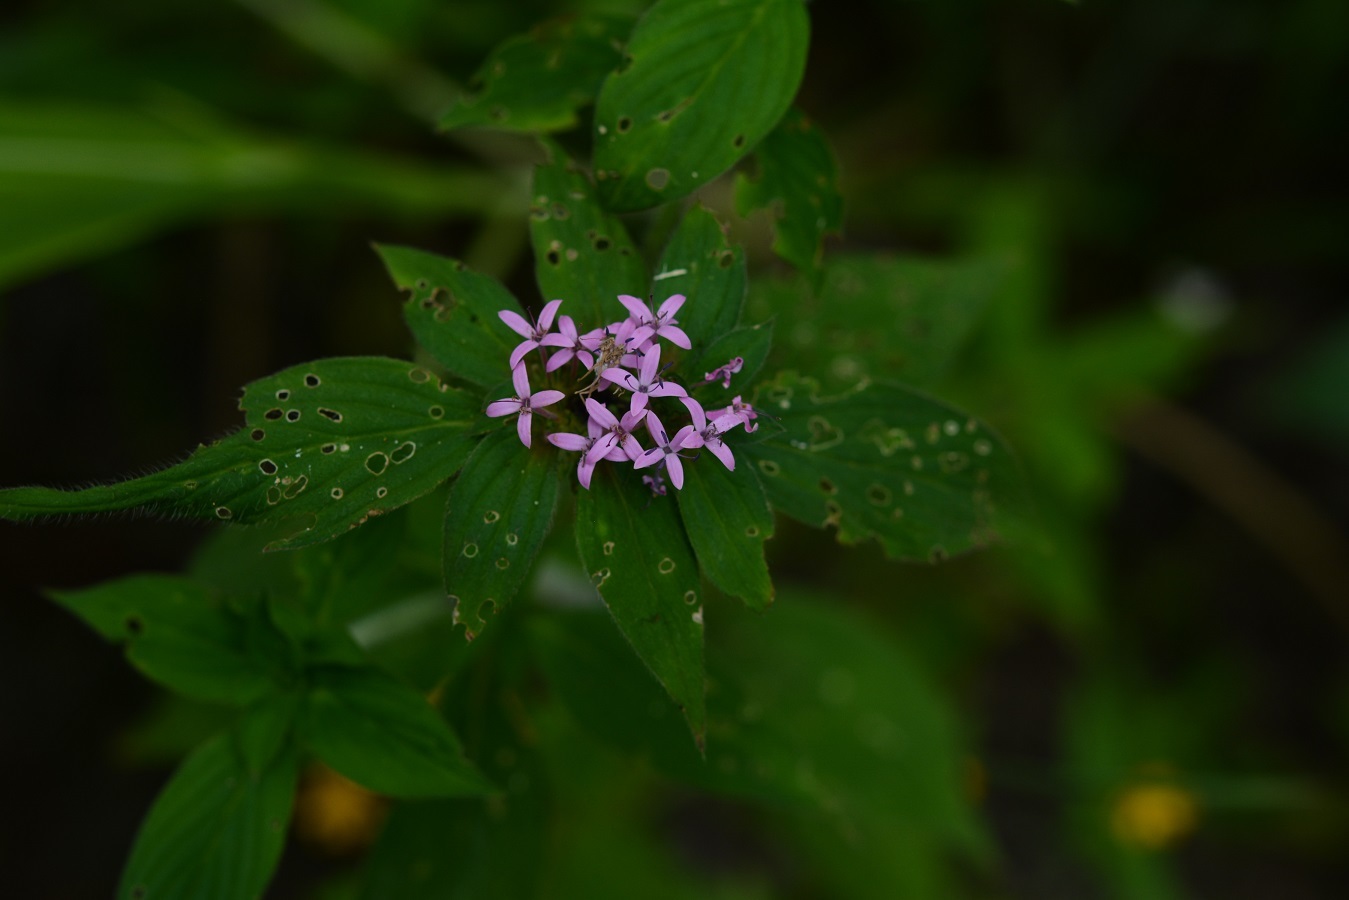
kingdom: Plantae
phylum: Tracheophyta
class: Magnoliopsida
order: Gentianales
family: Rubiaceae
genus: Crusea
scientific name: Crusea hispida
